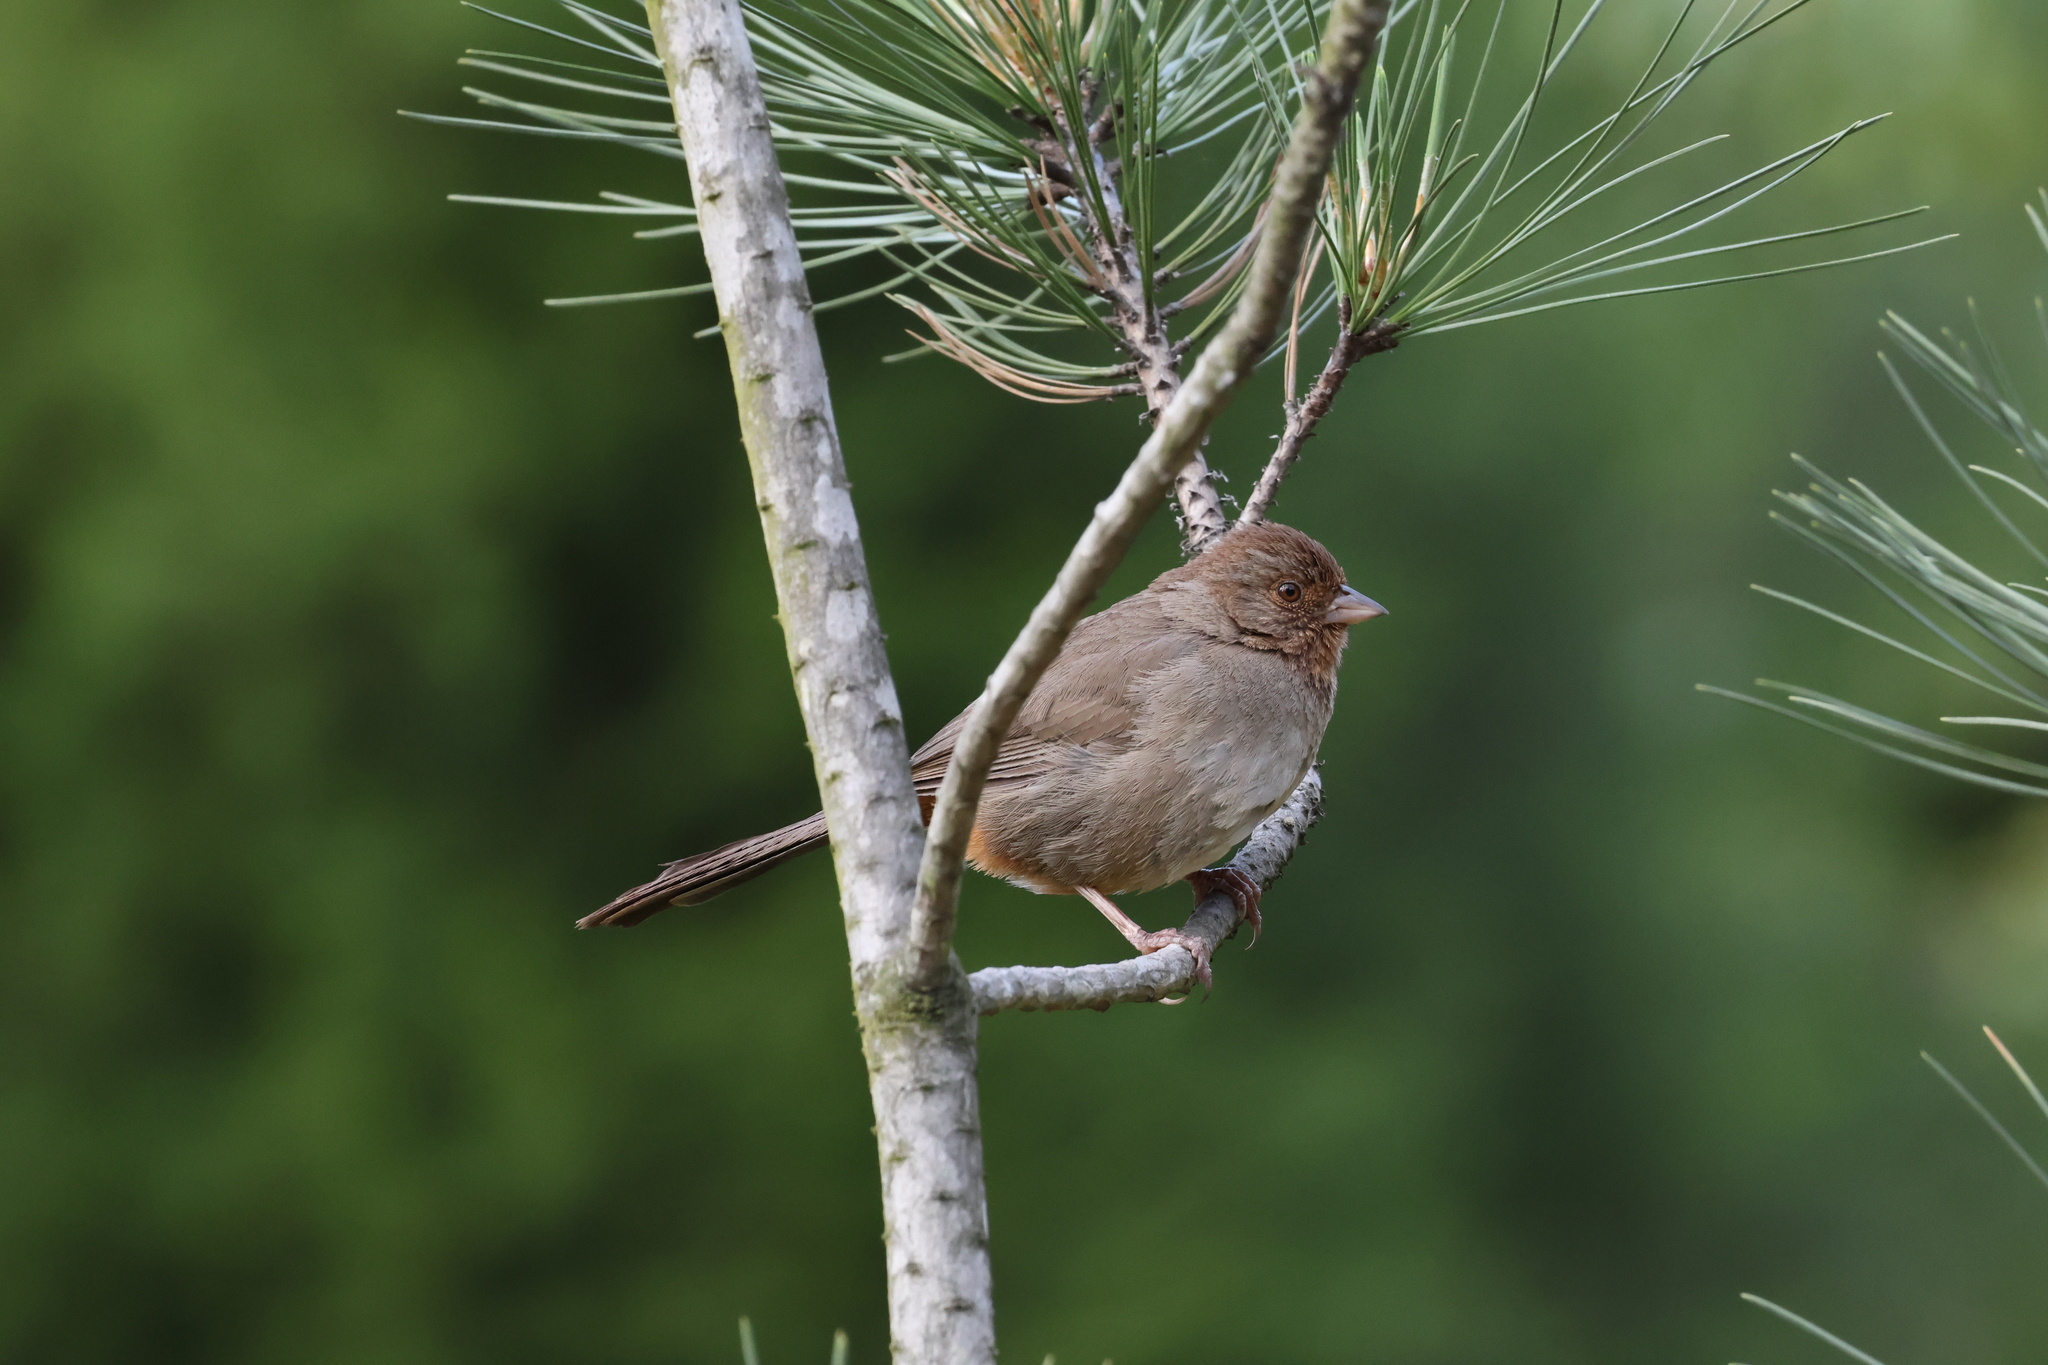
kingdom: Animalia
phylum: Chordata
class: Aves
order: Passeriformes
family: Passerellidae
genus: Melozone
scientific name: Melozone crissalis
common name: California towhee
